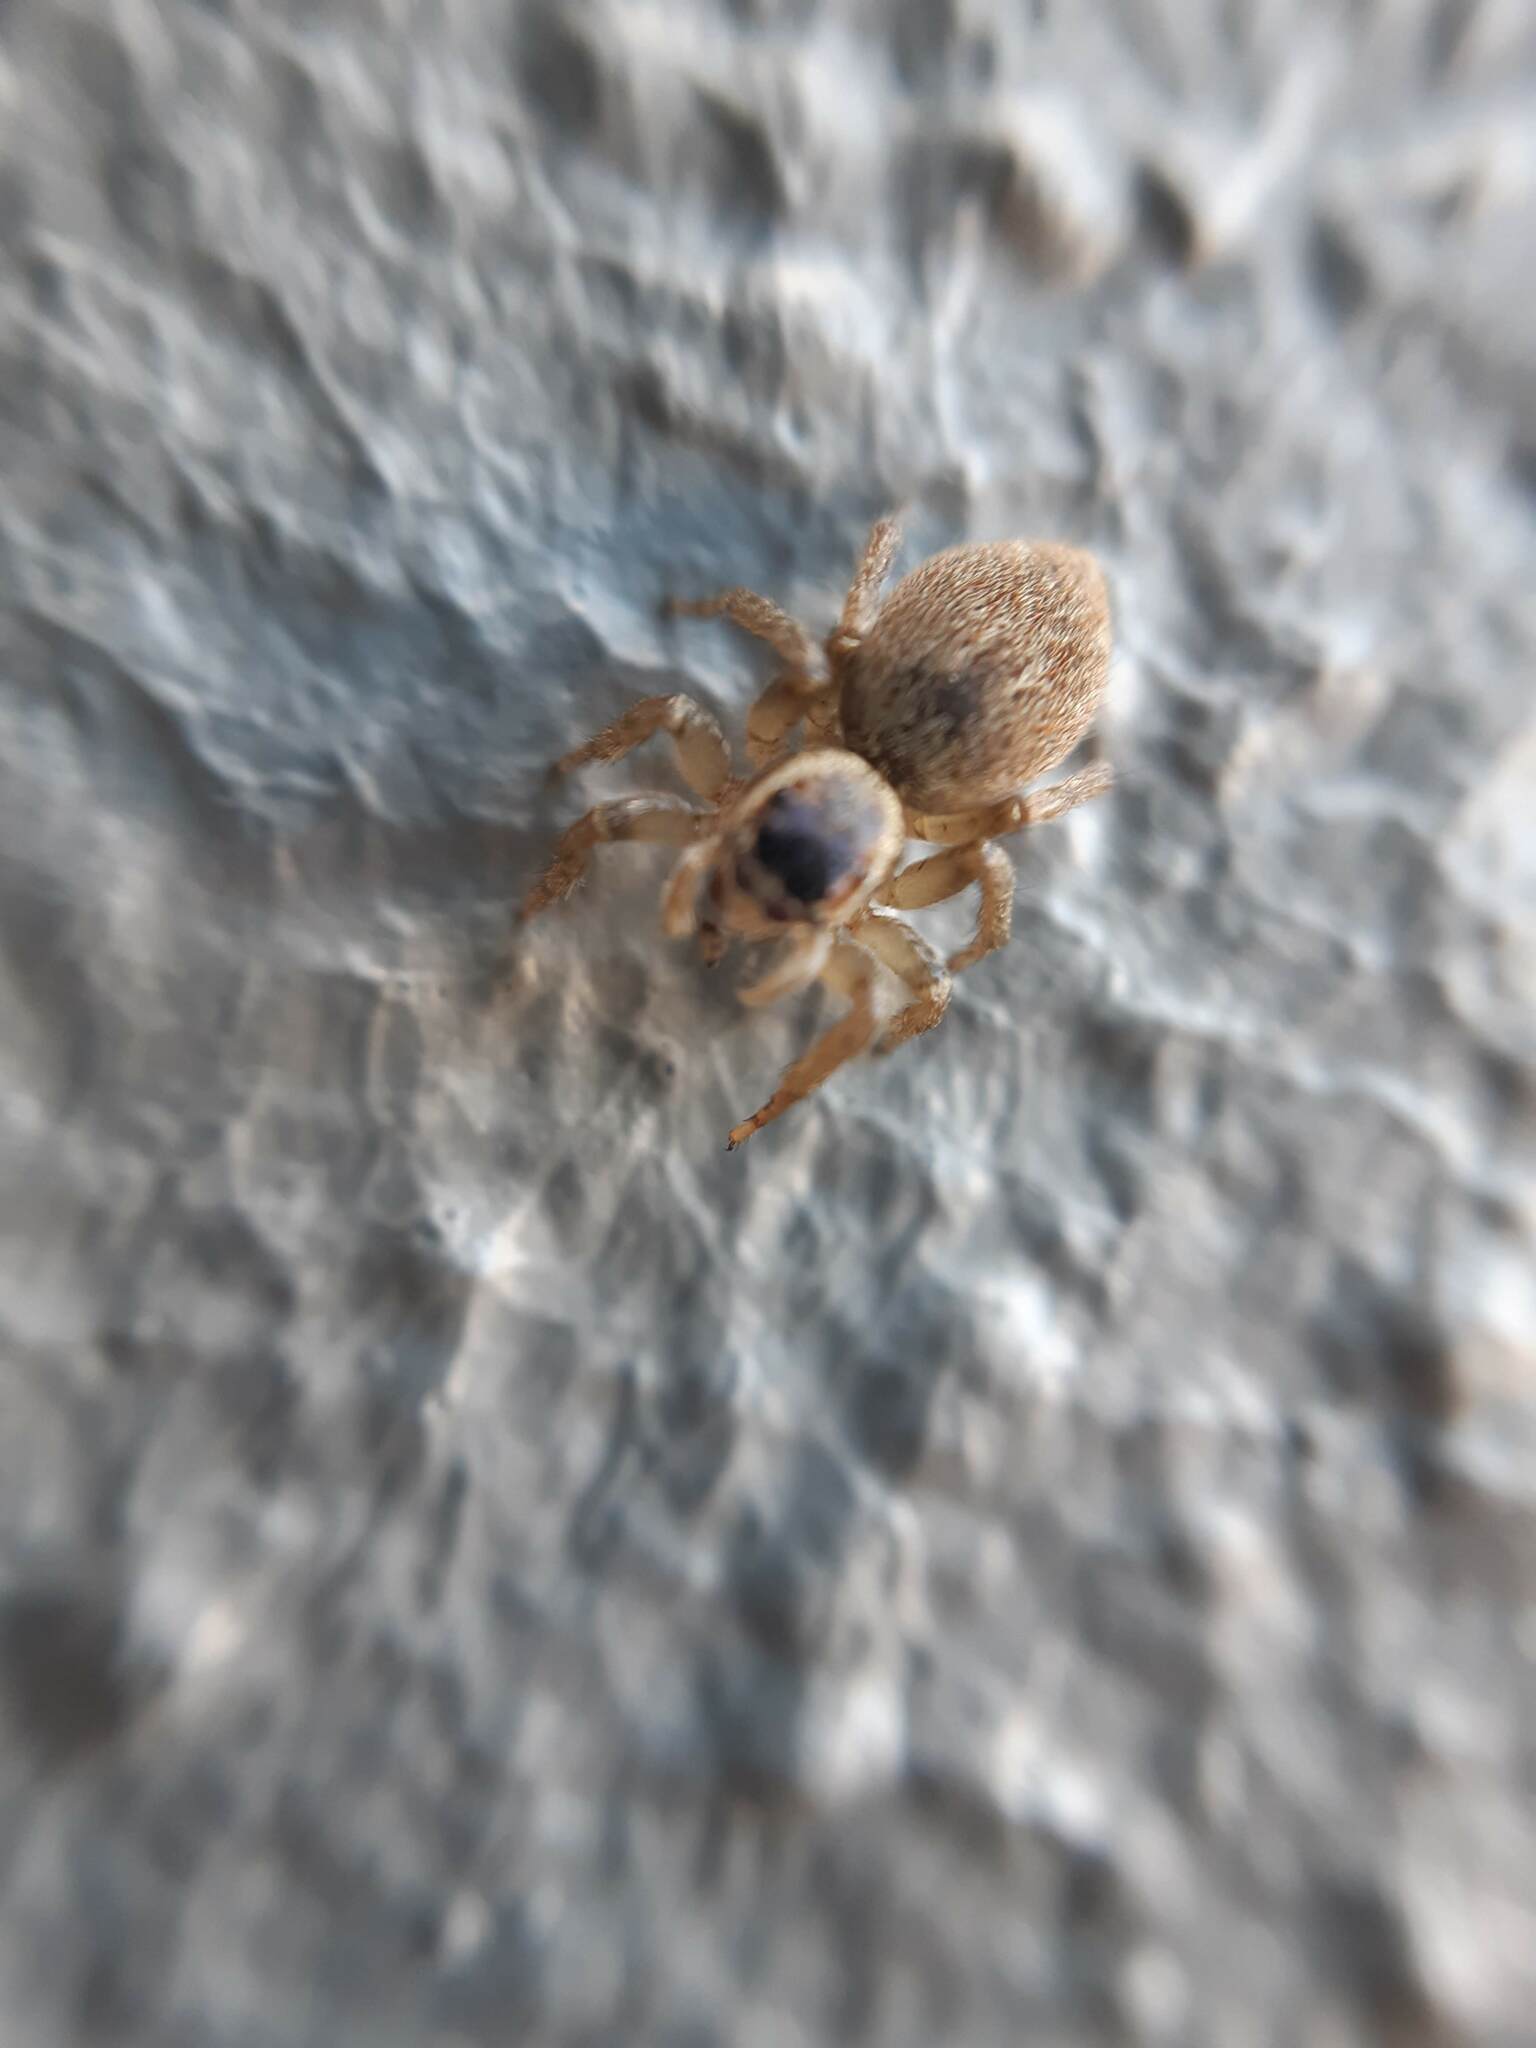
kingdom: Animalia
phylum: Arthropoda
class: Arachnida
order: Araneae
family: Salticidae
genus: Maratus
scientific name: Maratus griseus
